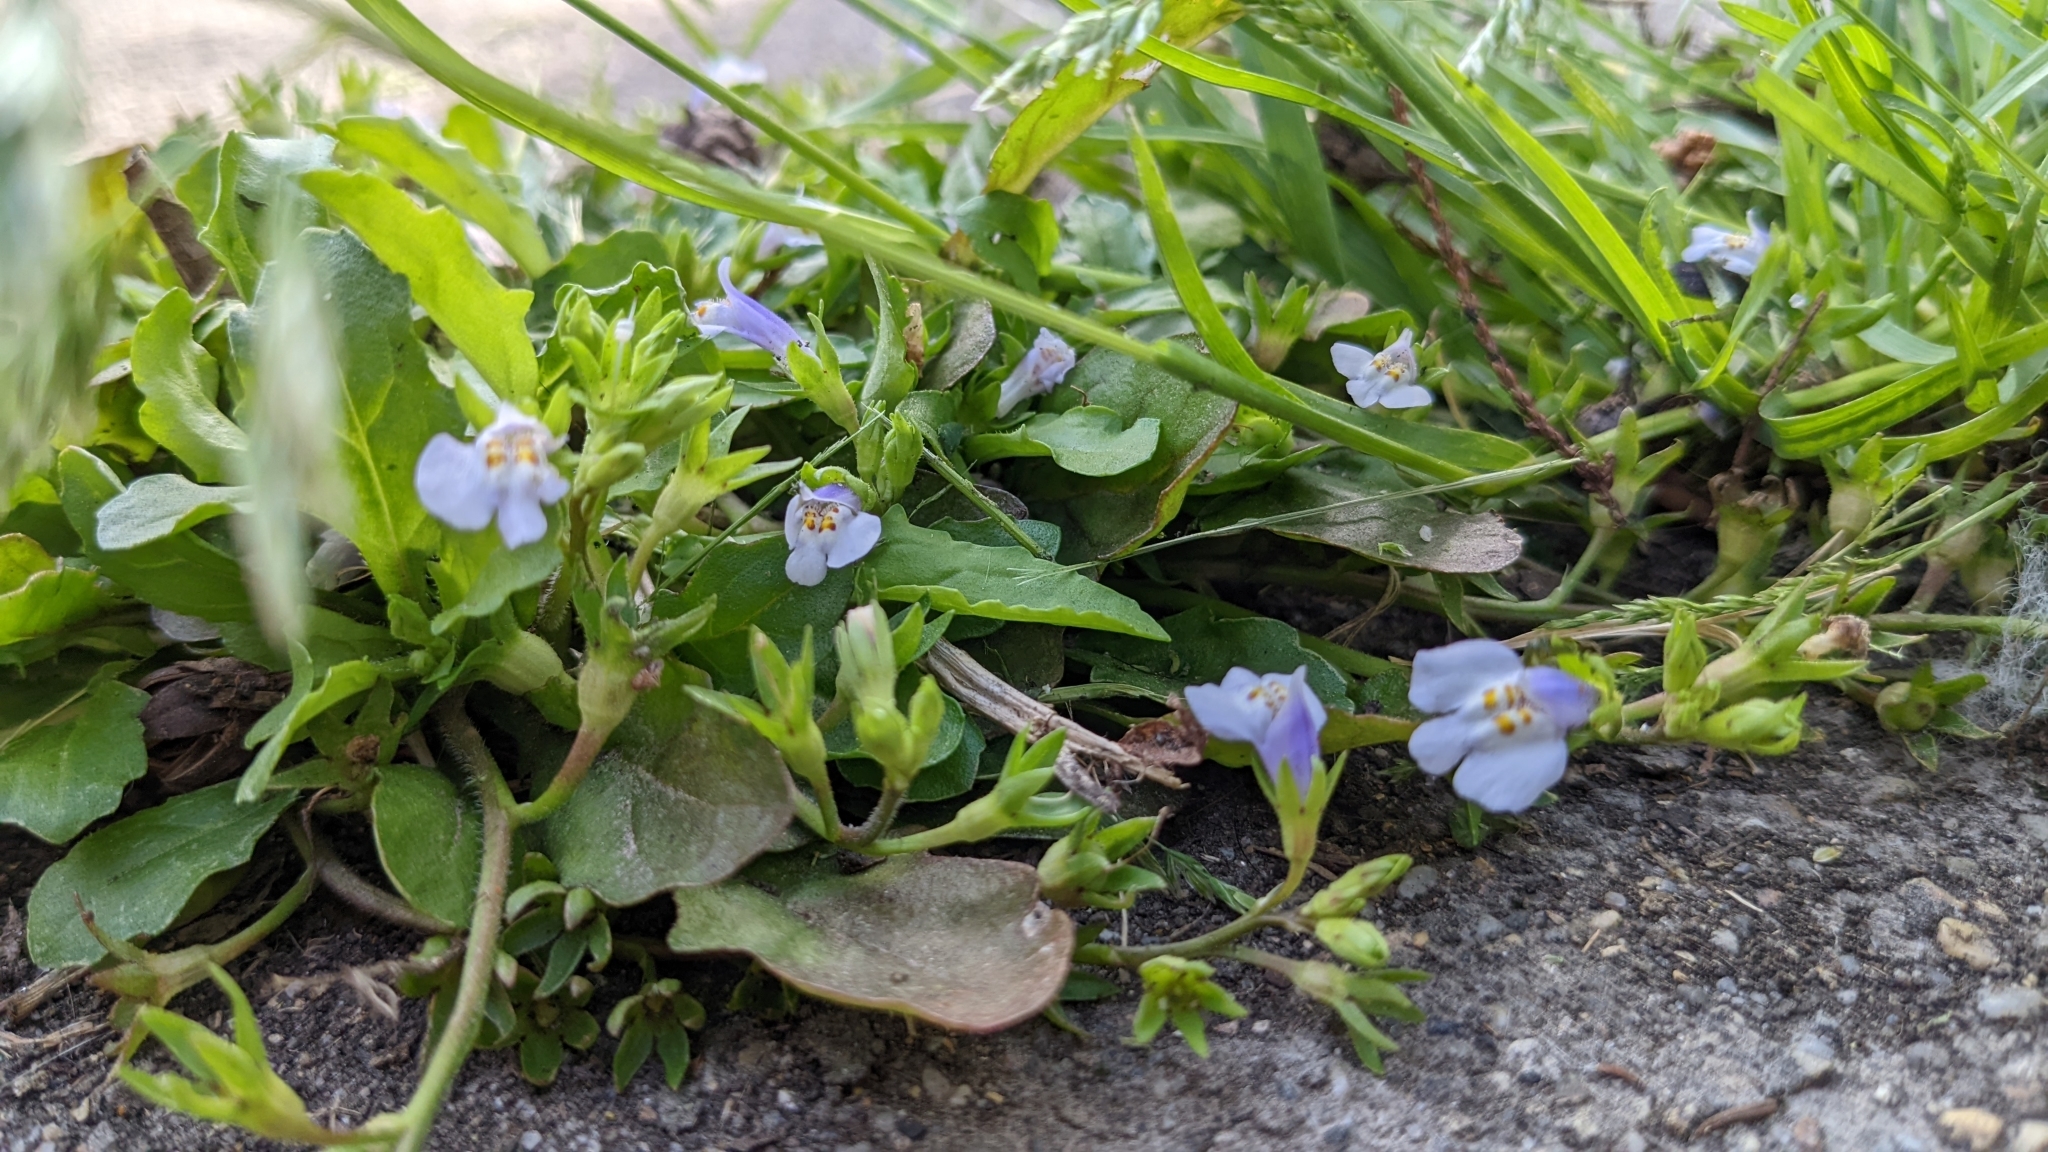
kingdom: Plantae
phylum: Tracheophyta
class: Magnoliopsida
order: Lamiales
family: Mazaceae
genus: Mazus
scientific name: Mazus pumilus
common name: Japanese mazus
